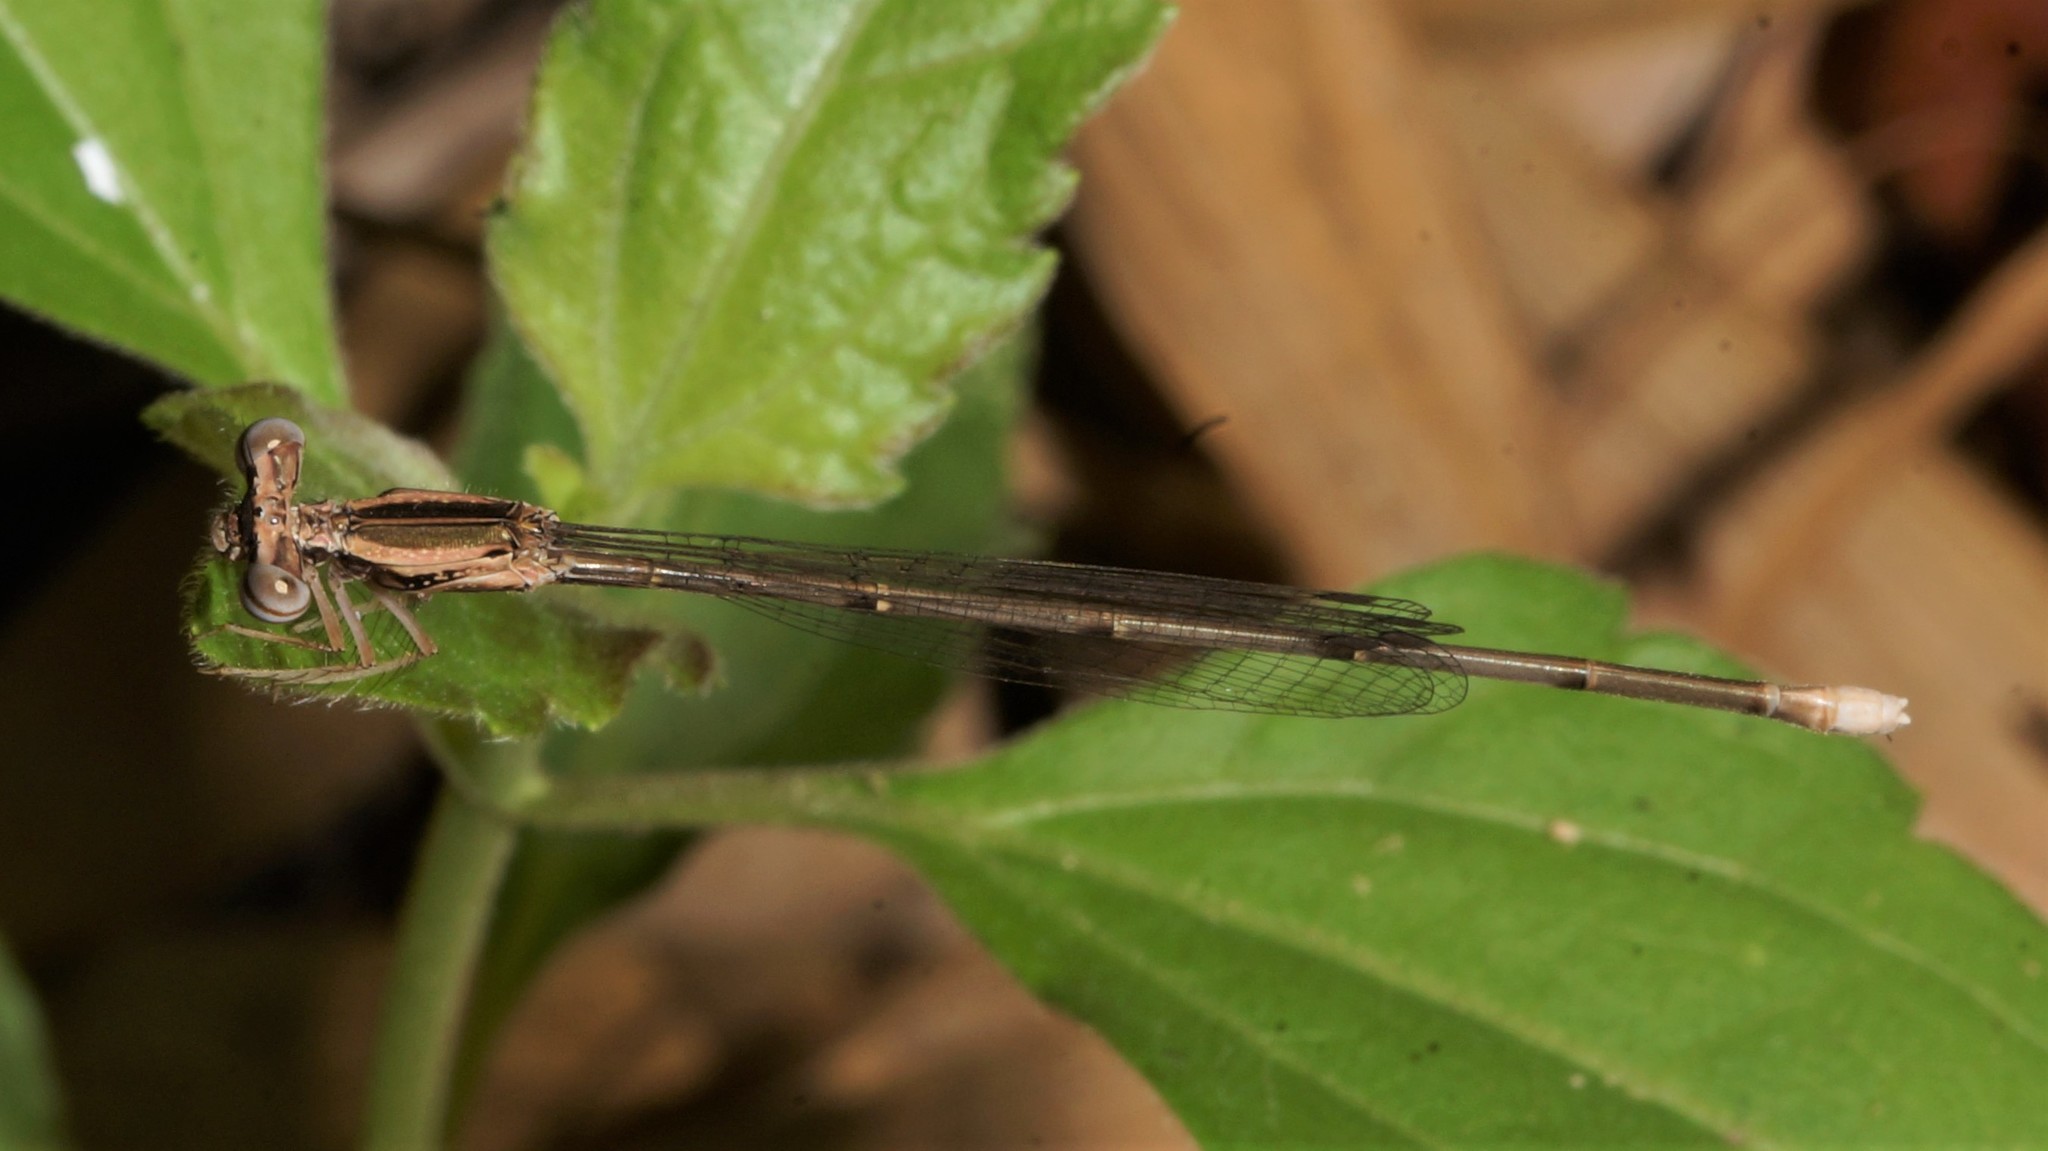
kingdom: Animalia
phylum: Arthropoda
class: Insecta
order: Odonata
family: Platycnemididae
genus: Copera
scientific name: Copera marginipes
